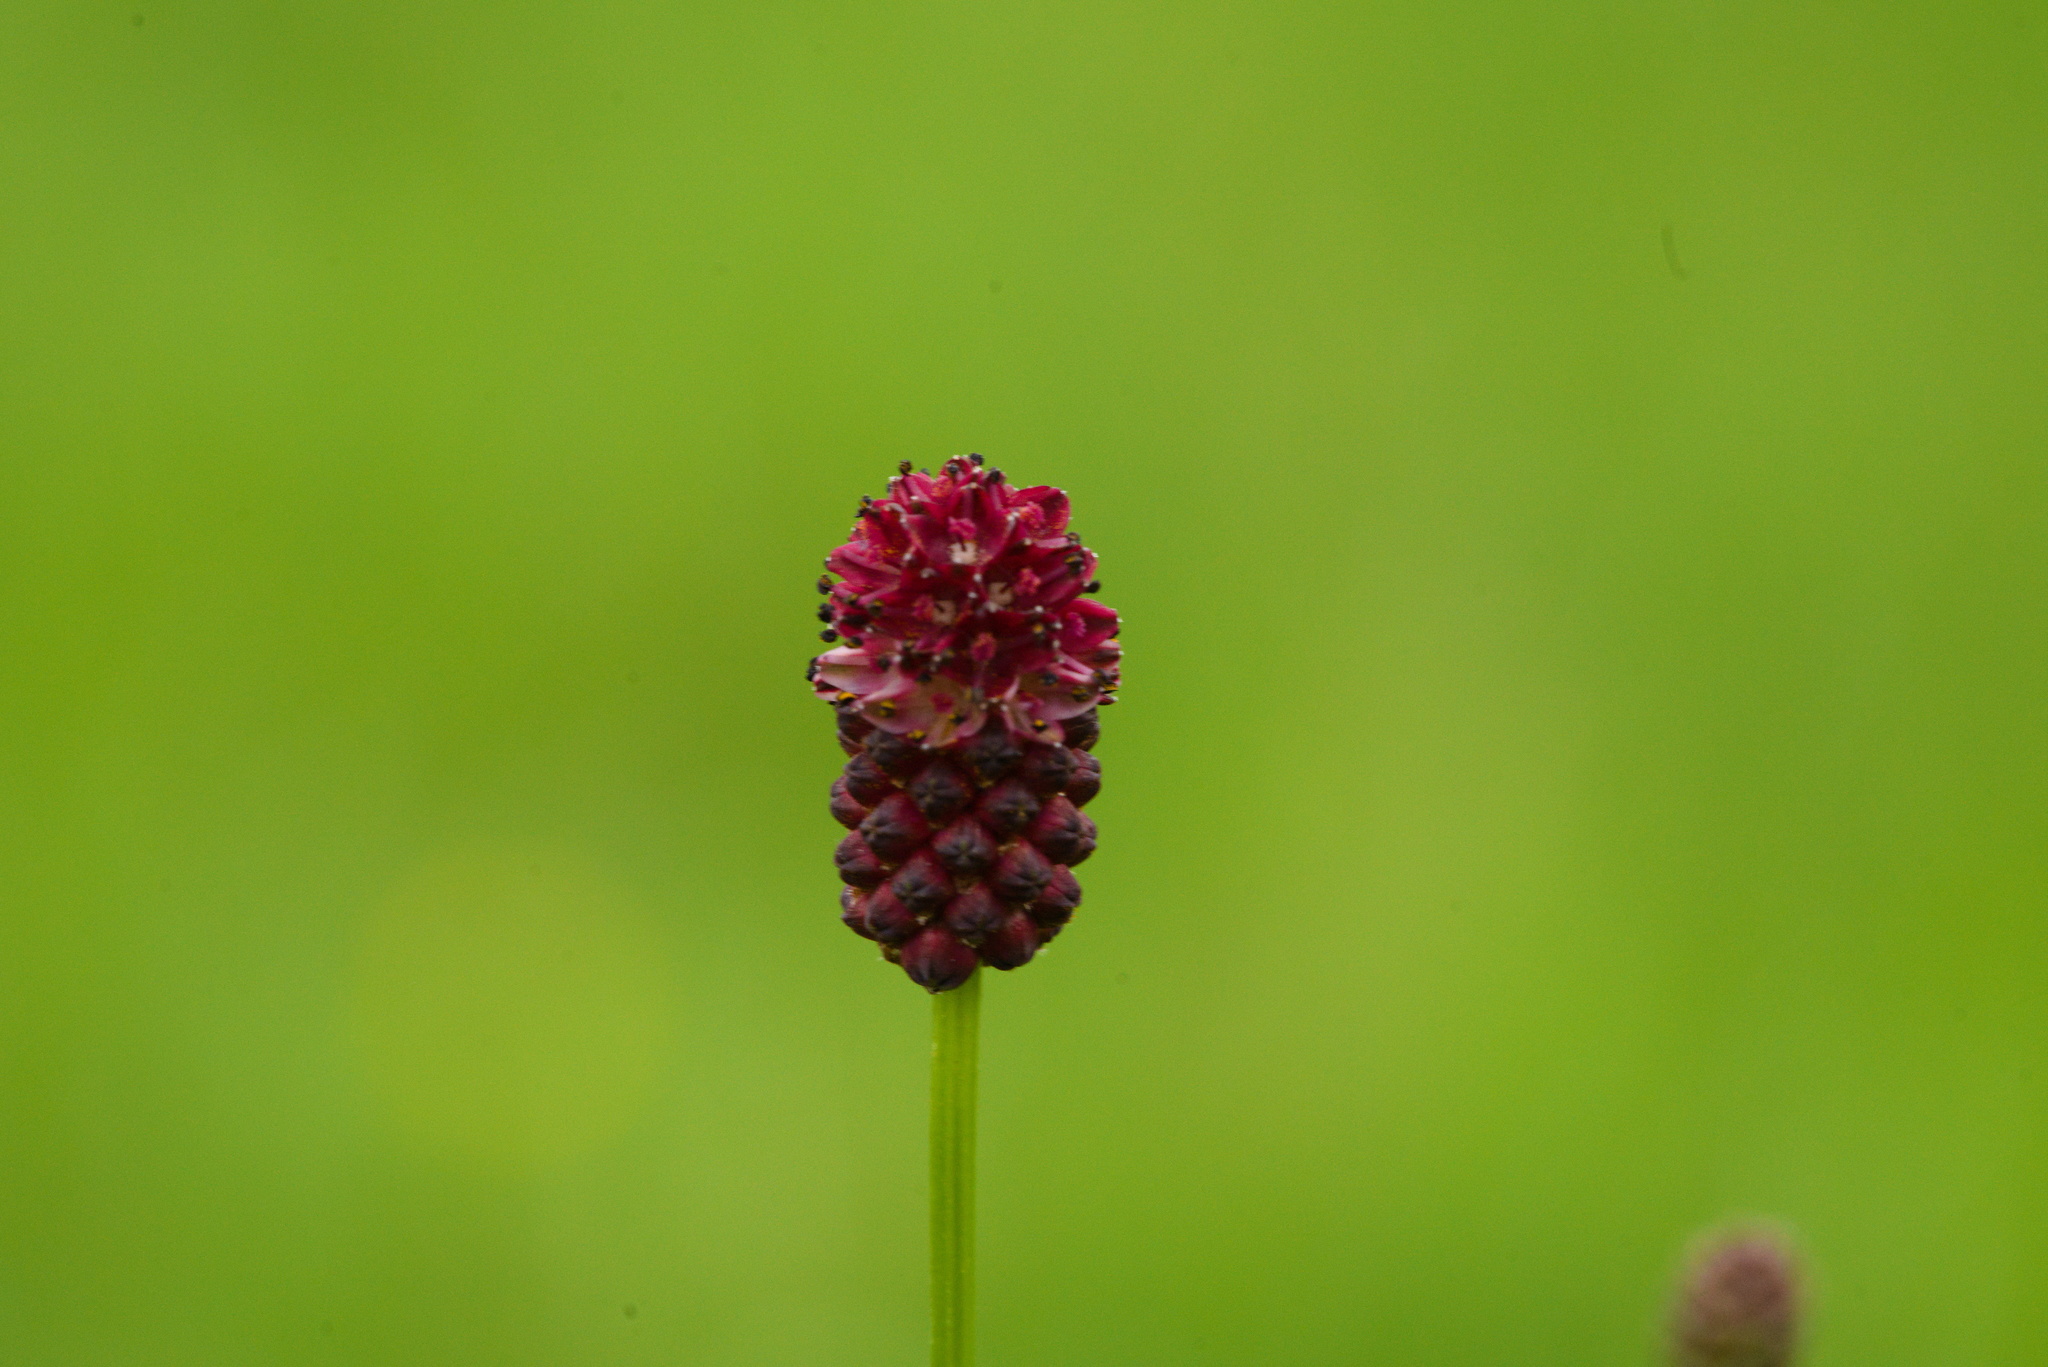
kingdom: Plantae
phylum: Tracheophyta
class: Magnoliopsida
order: Rosales
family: Rosaceae
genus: Sanguisorba
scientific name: Sanguisorba officinalis
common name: Great burnet
